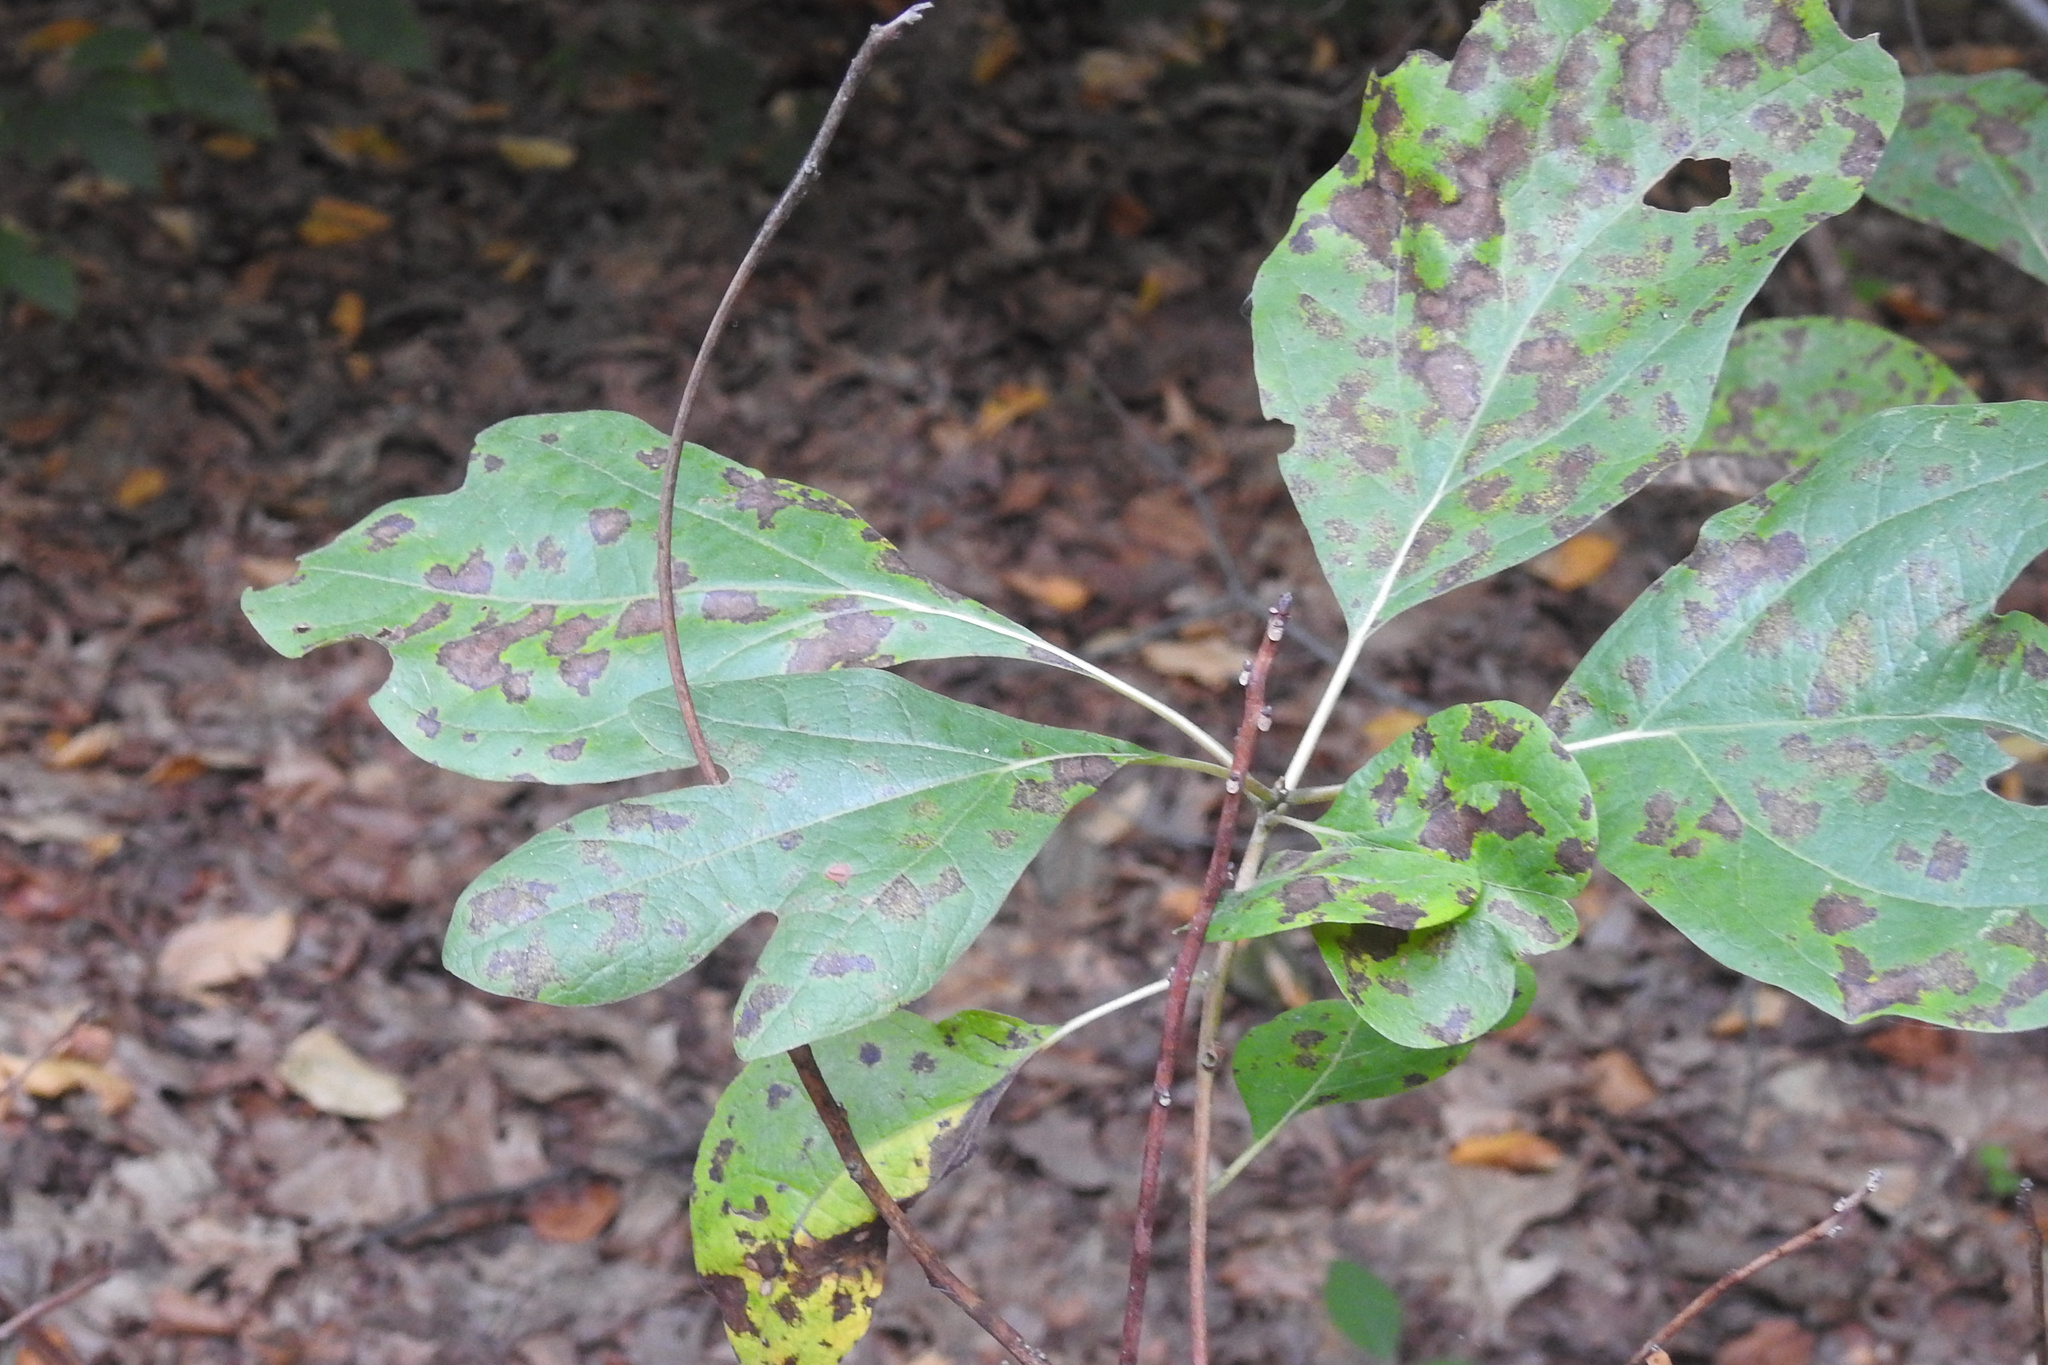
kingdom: Plantae
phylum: Tracheophyta
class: Magnoliopsida
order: Laurales
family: Lauraceae
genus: Sassafras
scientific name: Sassafras albidum
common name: Sassafras
